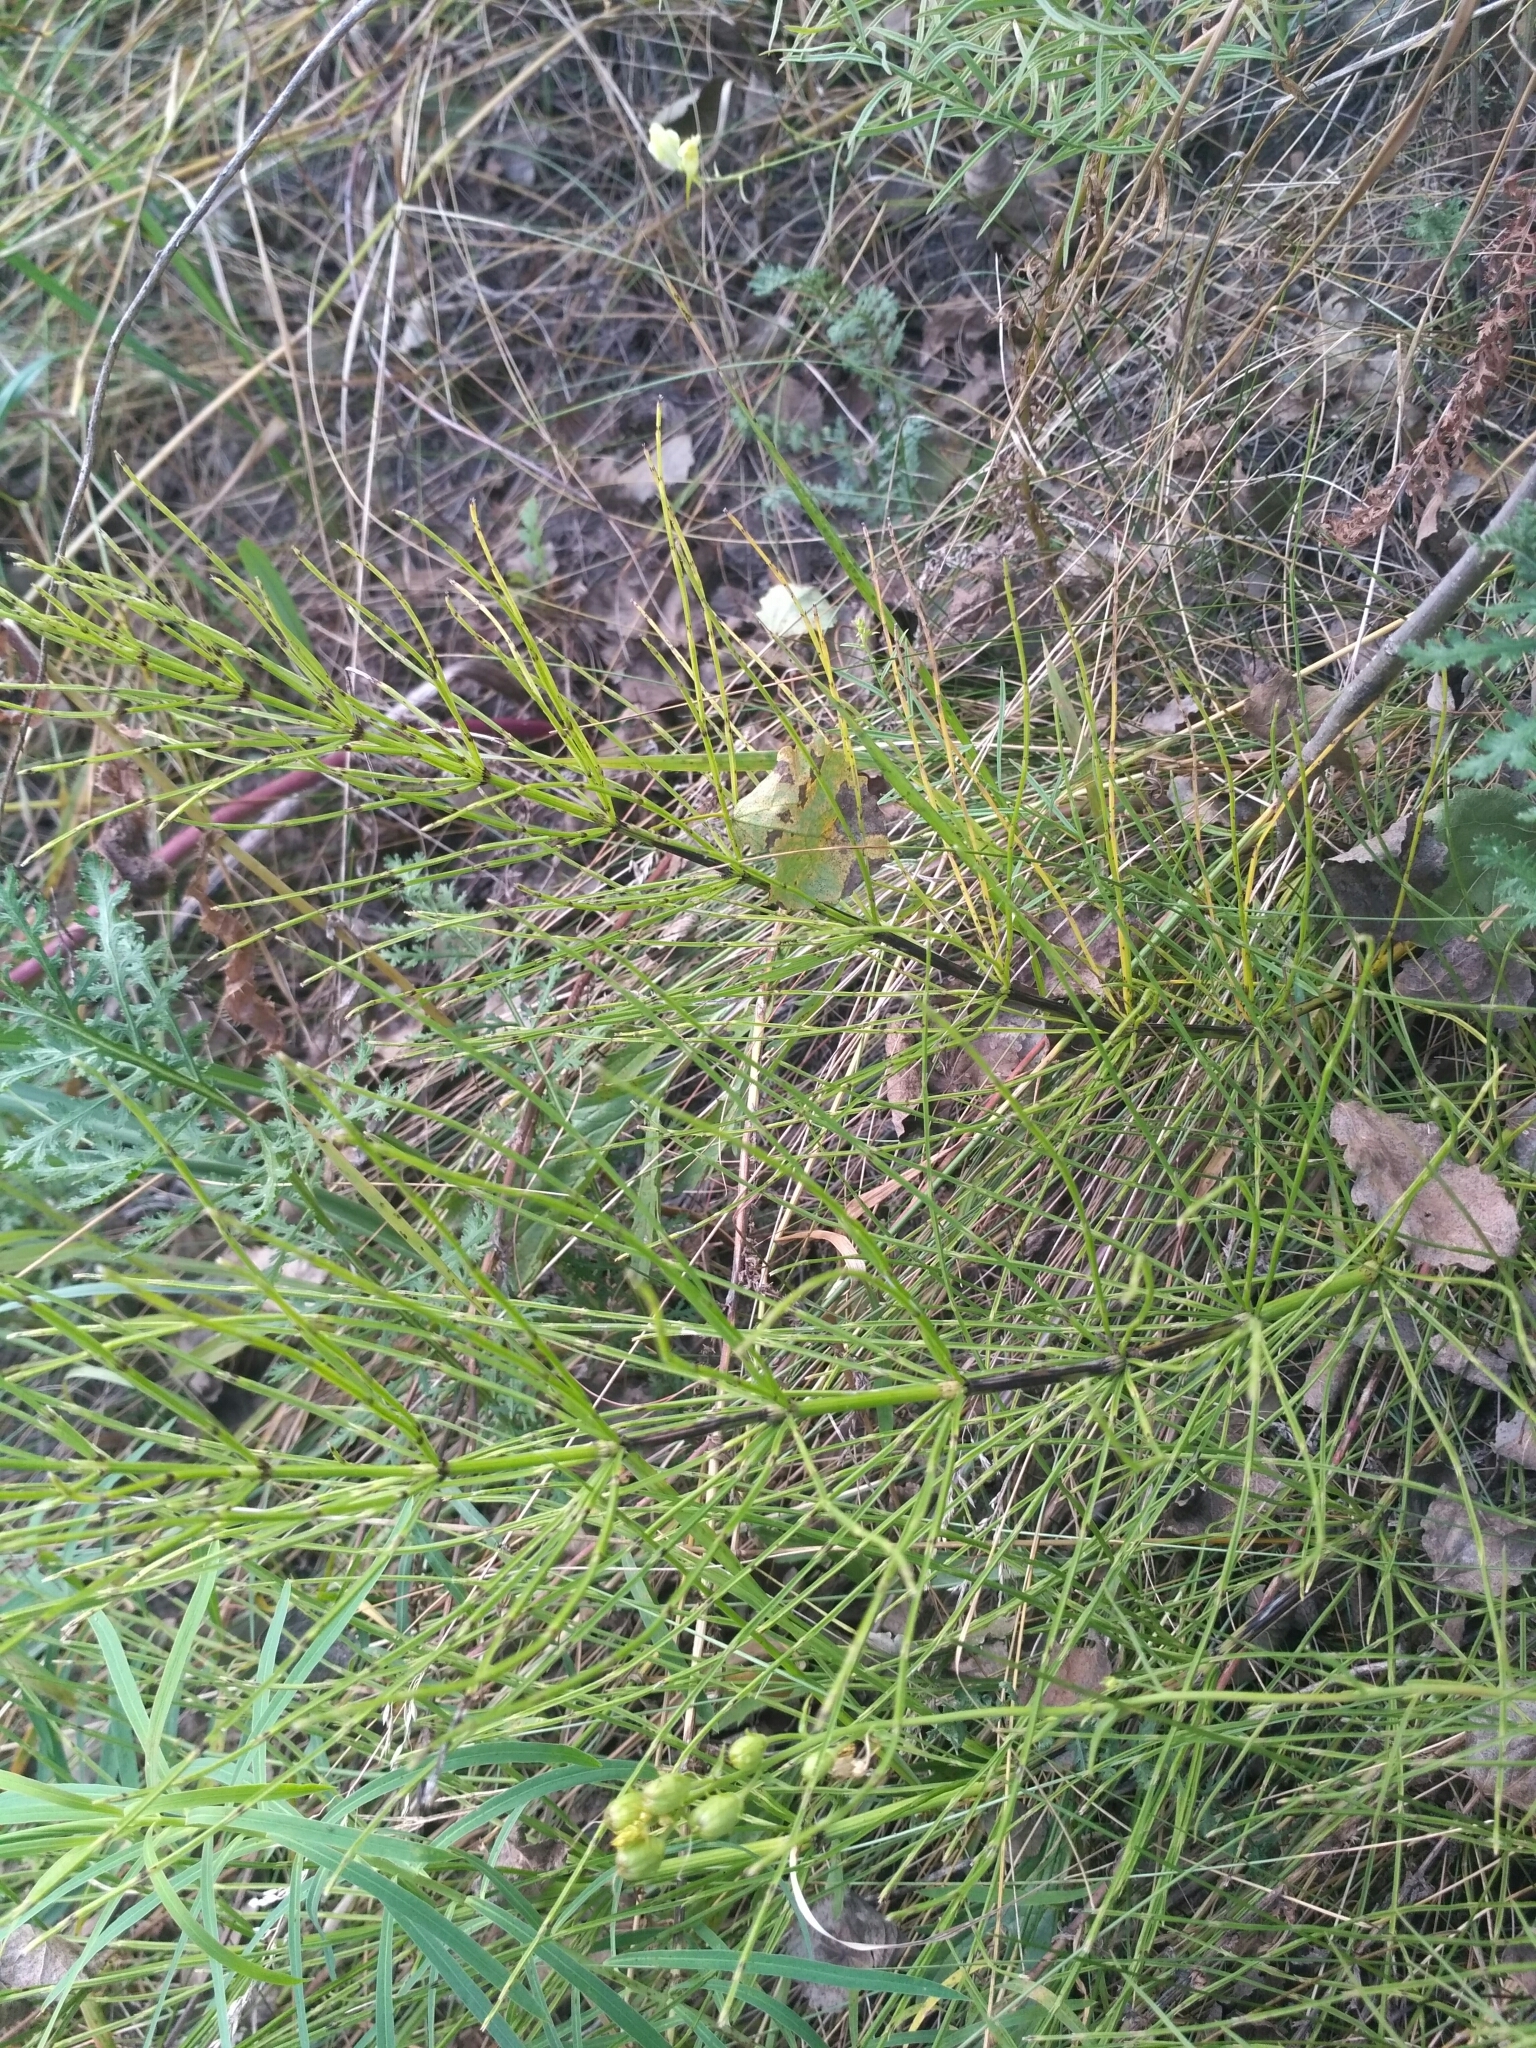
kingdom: Plantae
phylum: Tracheophyta
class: Polypodiopsida
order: Equisetales
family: Equisetaceae
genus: Equisetum
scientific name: Equisetum arvense
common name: Field horsetail
